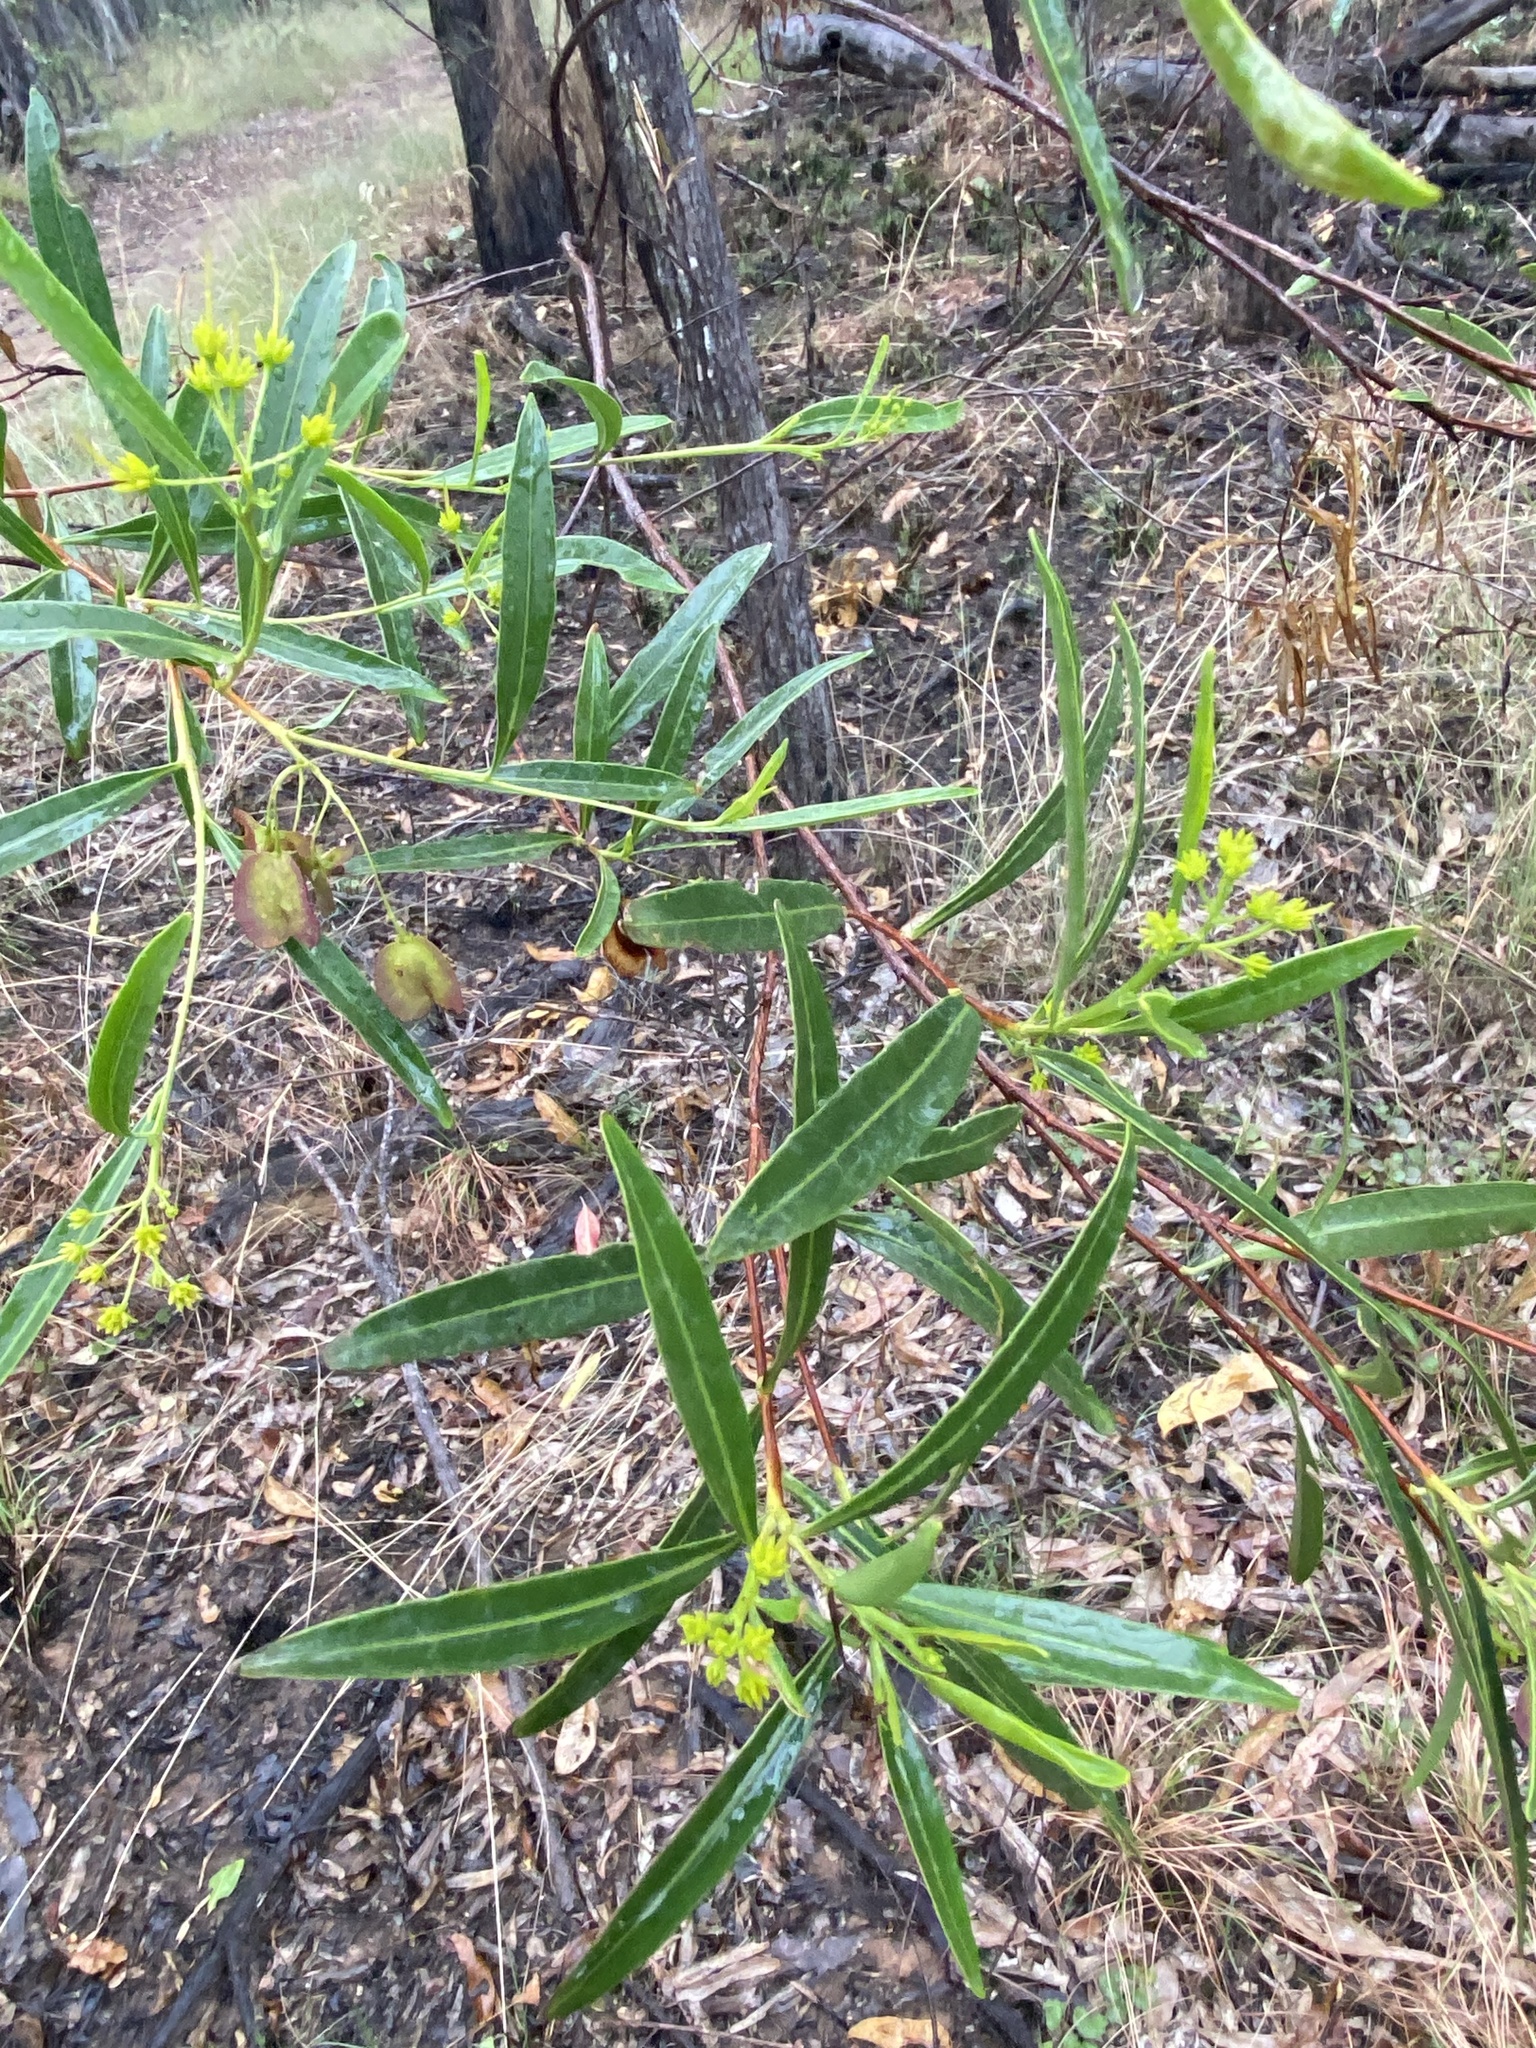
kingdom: Plantae
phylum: Tracheophyta
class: Magnoliopsida
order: Sapindales
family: Sapindaceae
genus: Dodonaea
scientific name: Dodonaea lanceolata
